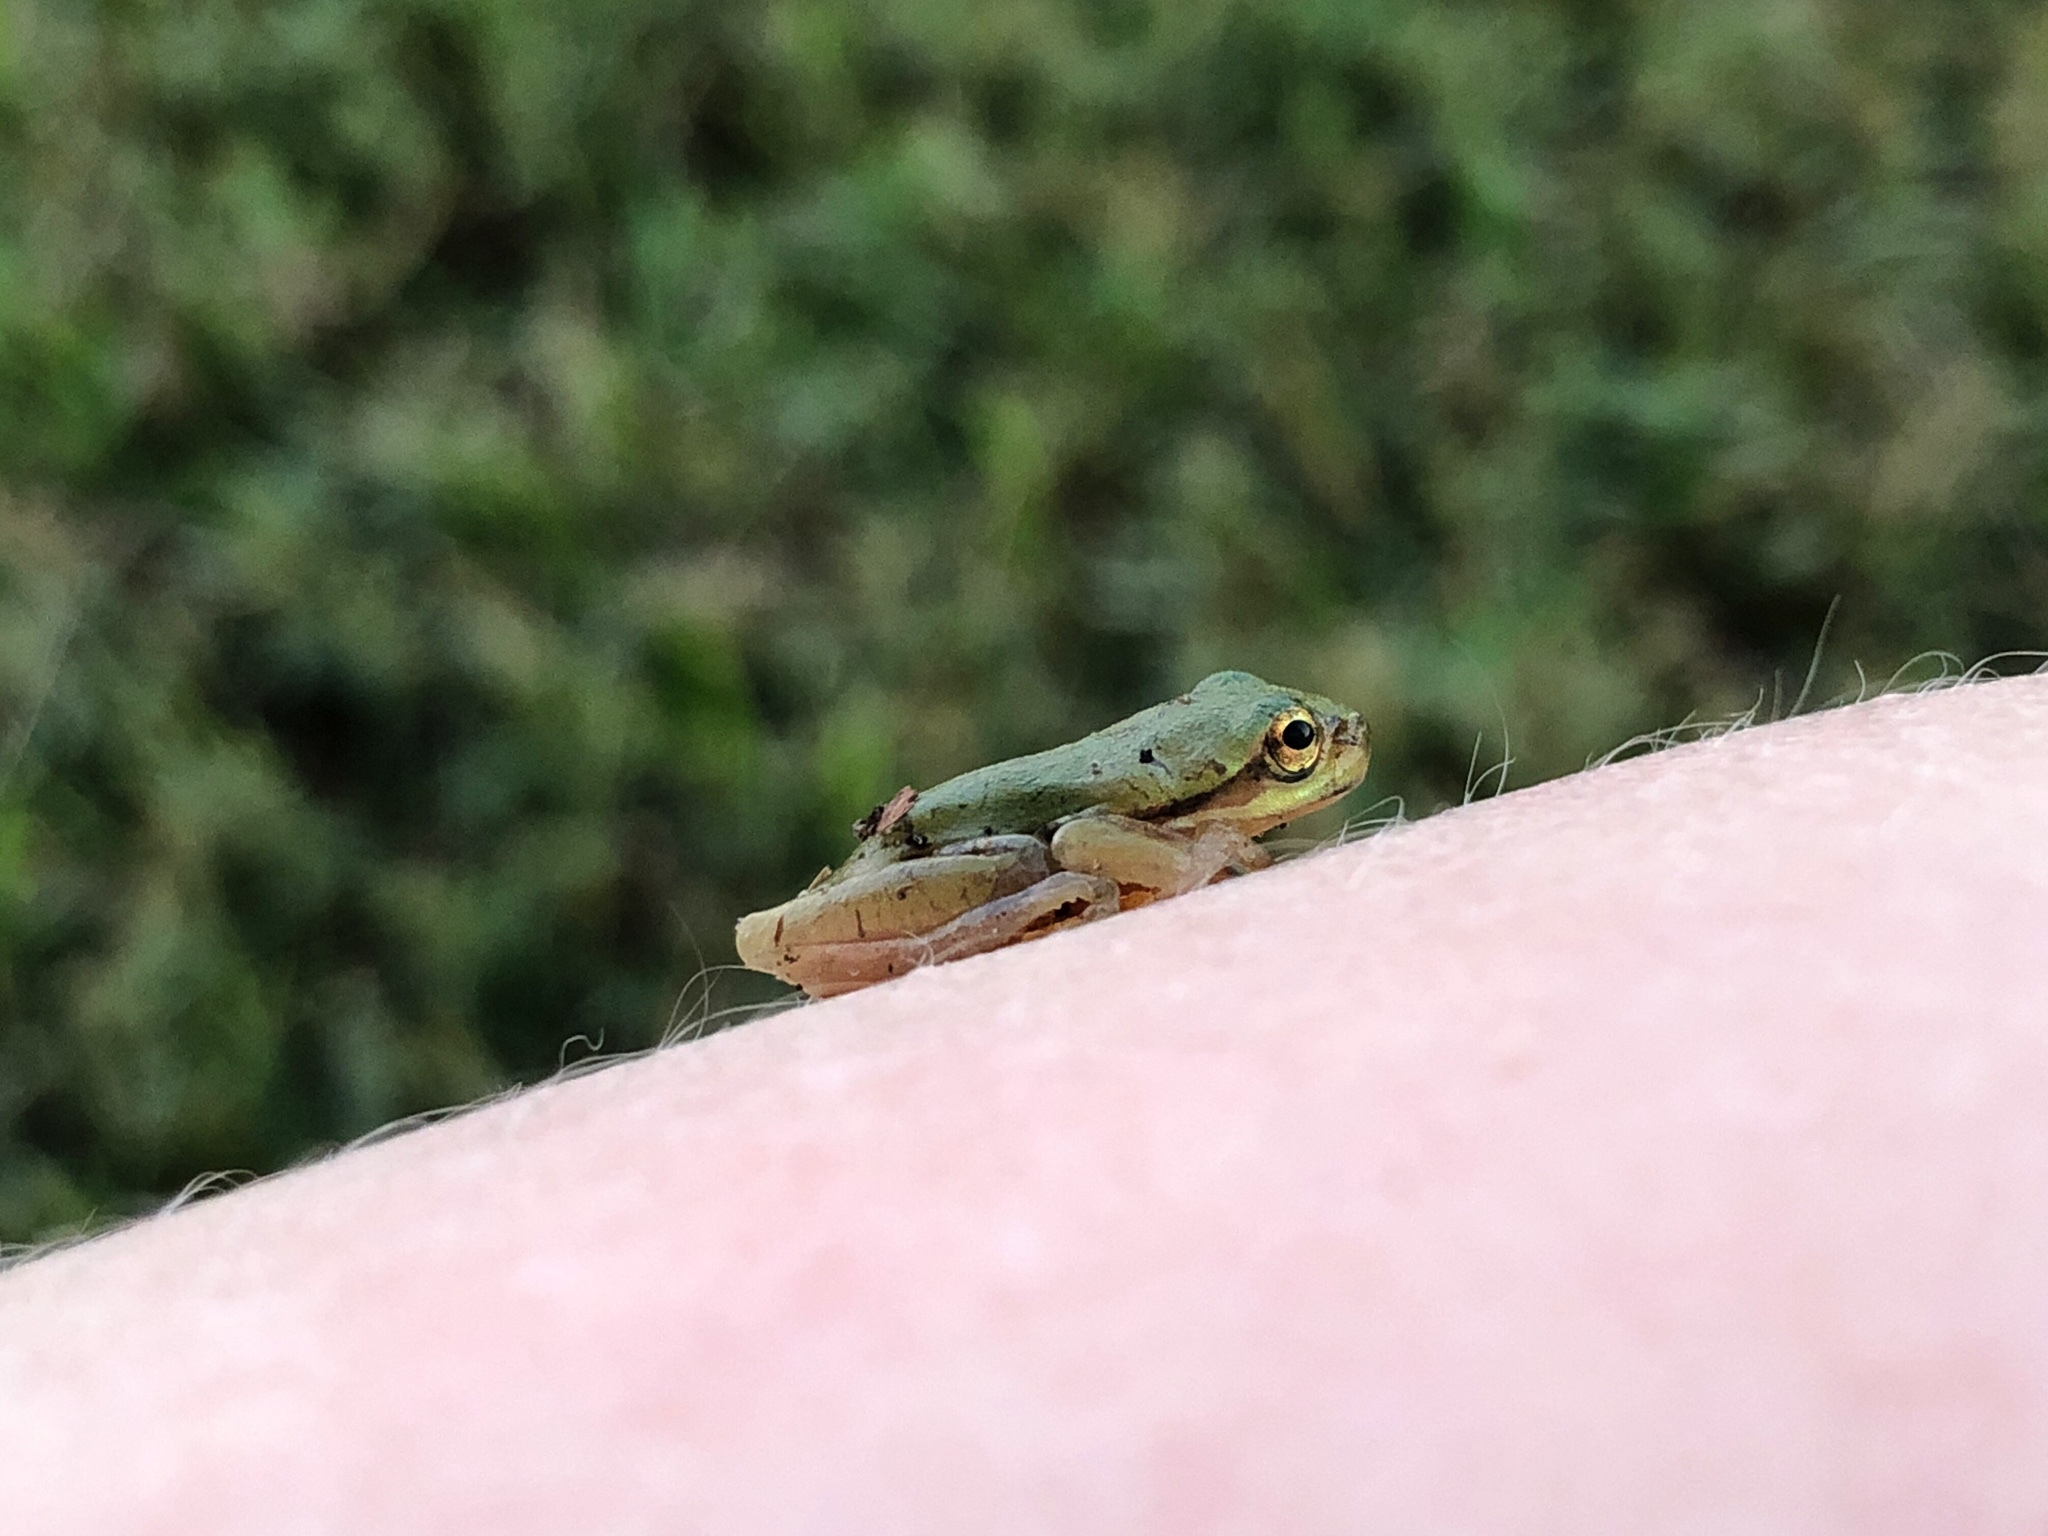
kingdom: Animalia
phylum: Chordata
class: Amphibia
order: Anura
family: Hylidae
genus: Dryophytes
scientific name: Dryophytes squirellus
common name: Squirrel treefrog
